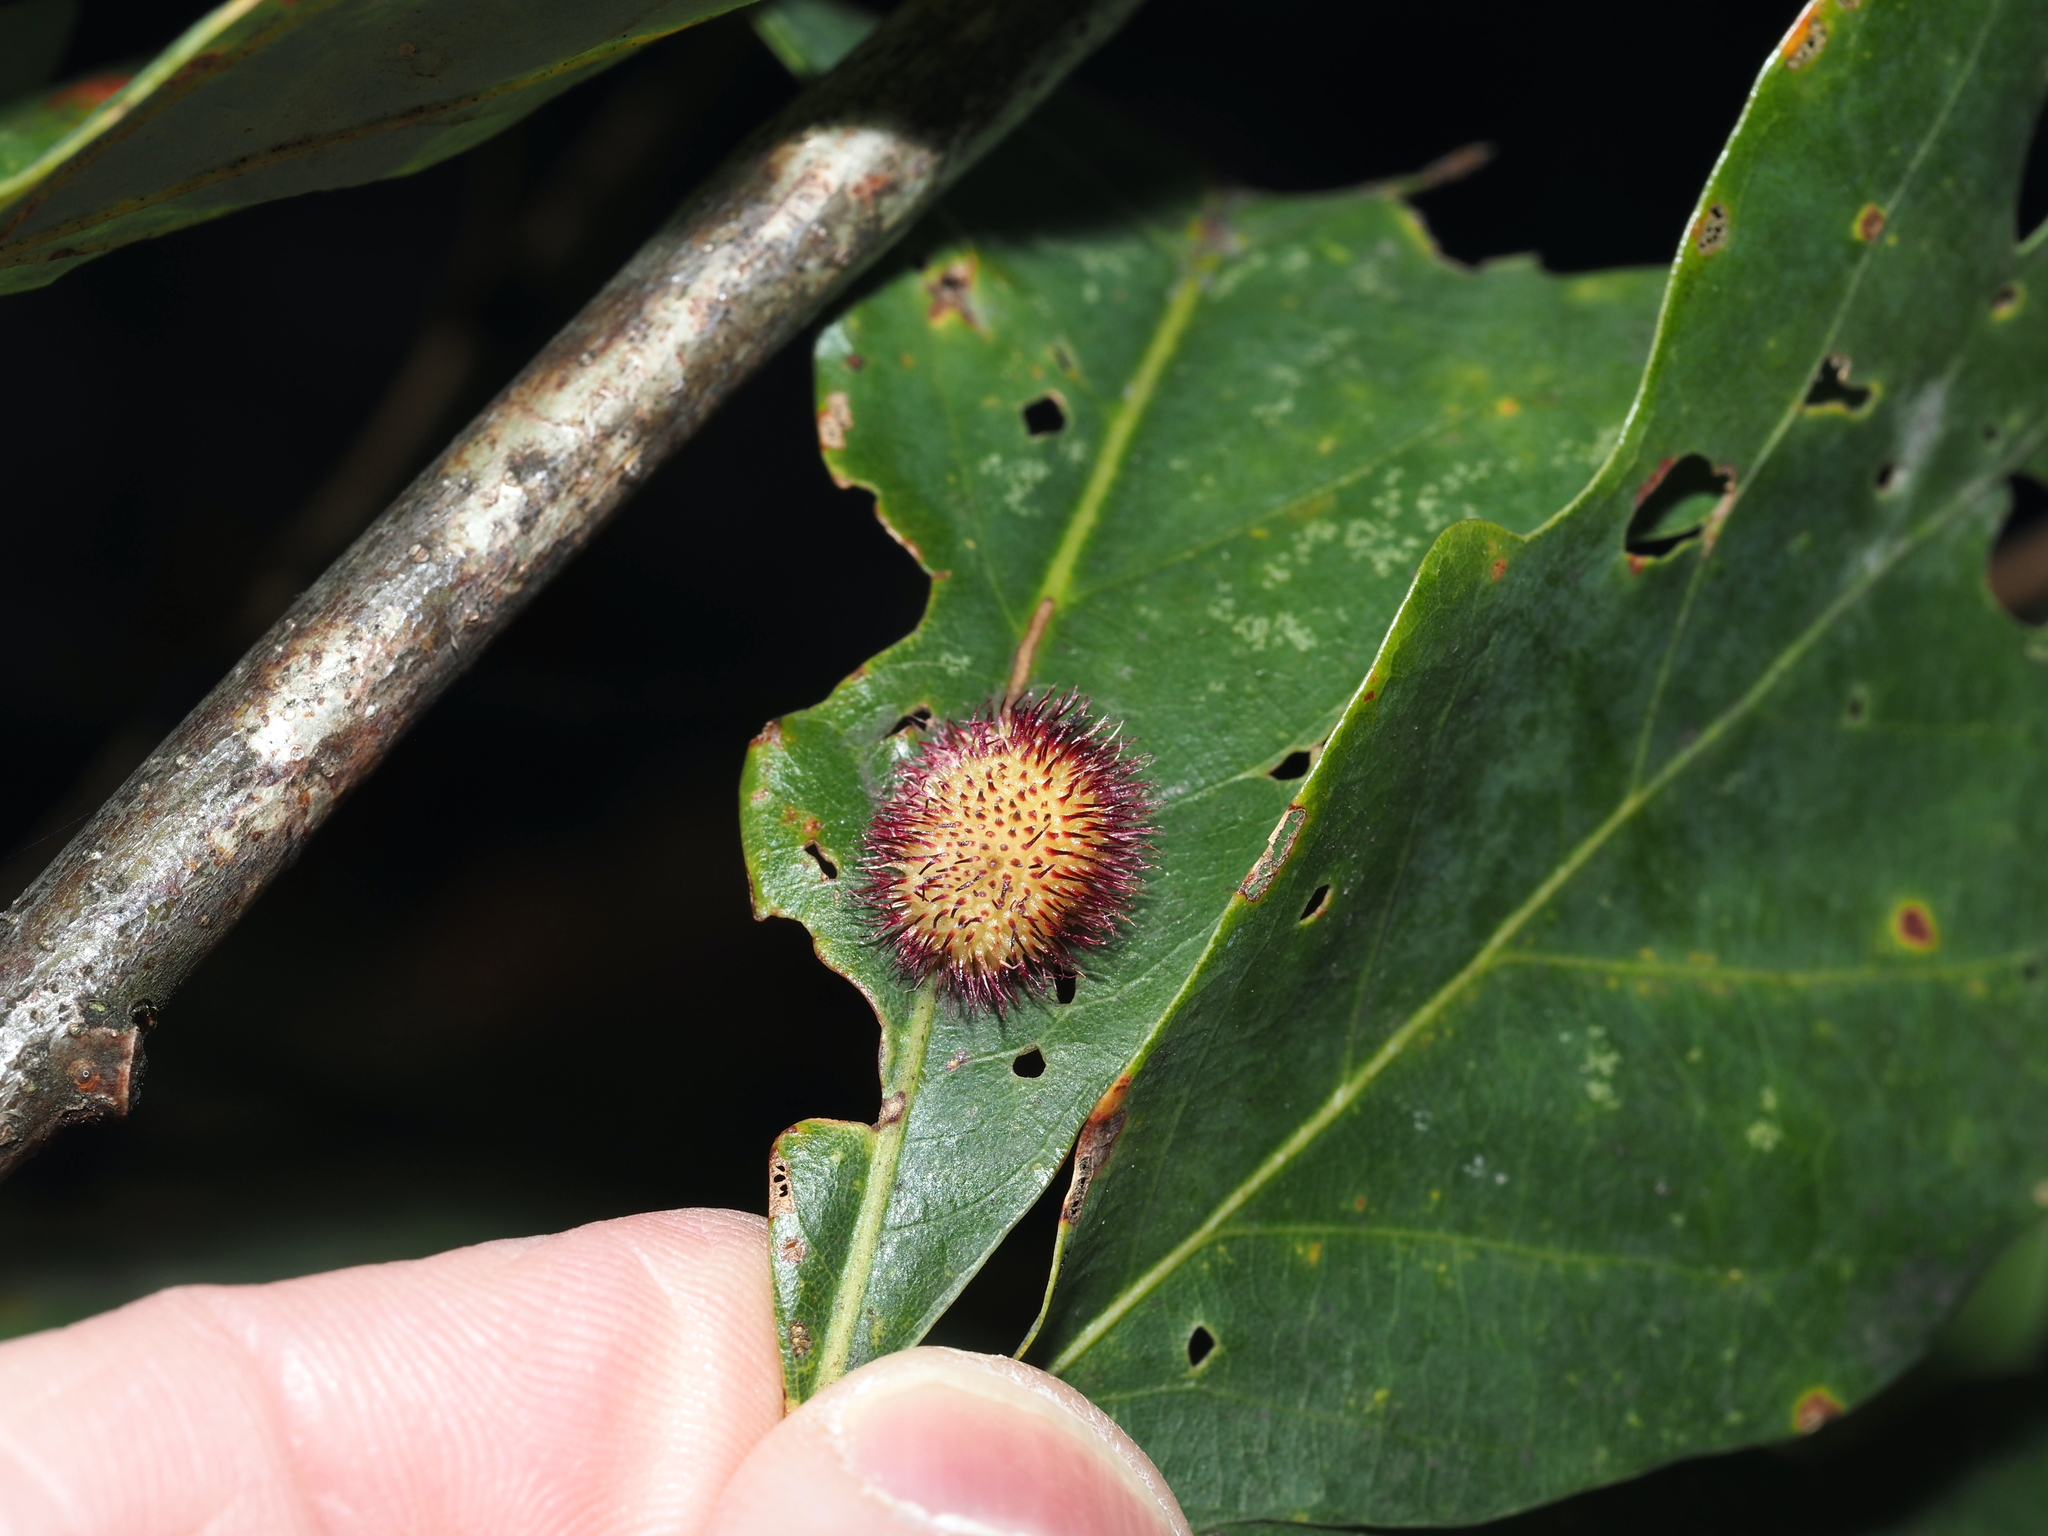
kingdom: Animalia
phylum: Arthropoda
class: Insecta
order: Hymenoptera
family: Cynipidae
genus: Acraspis
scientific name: Acraspis erinacei
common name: Hedgehog gall wasp
